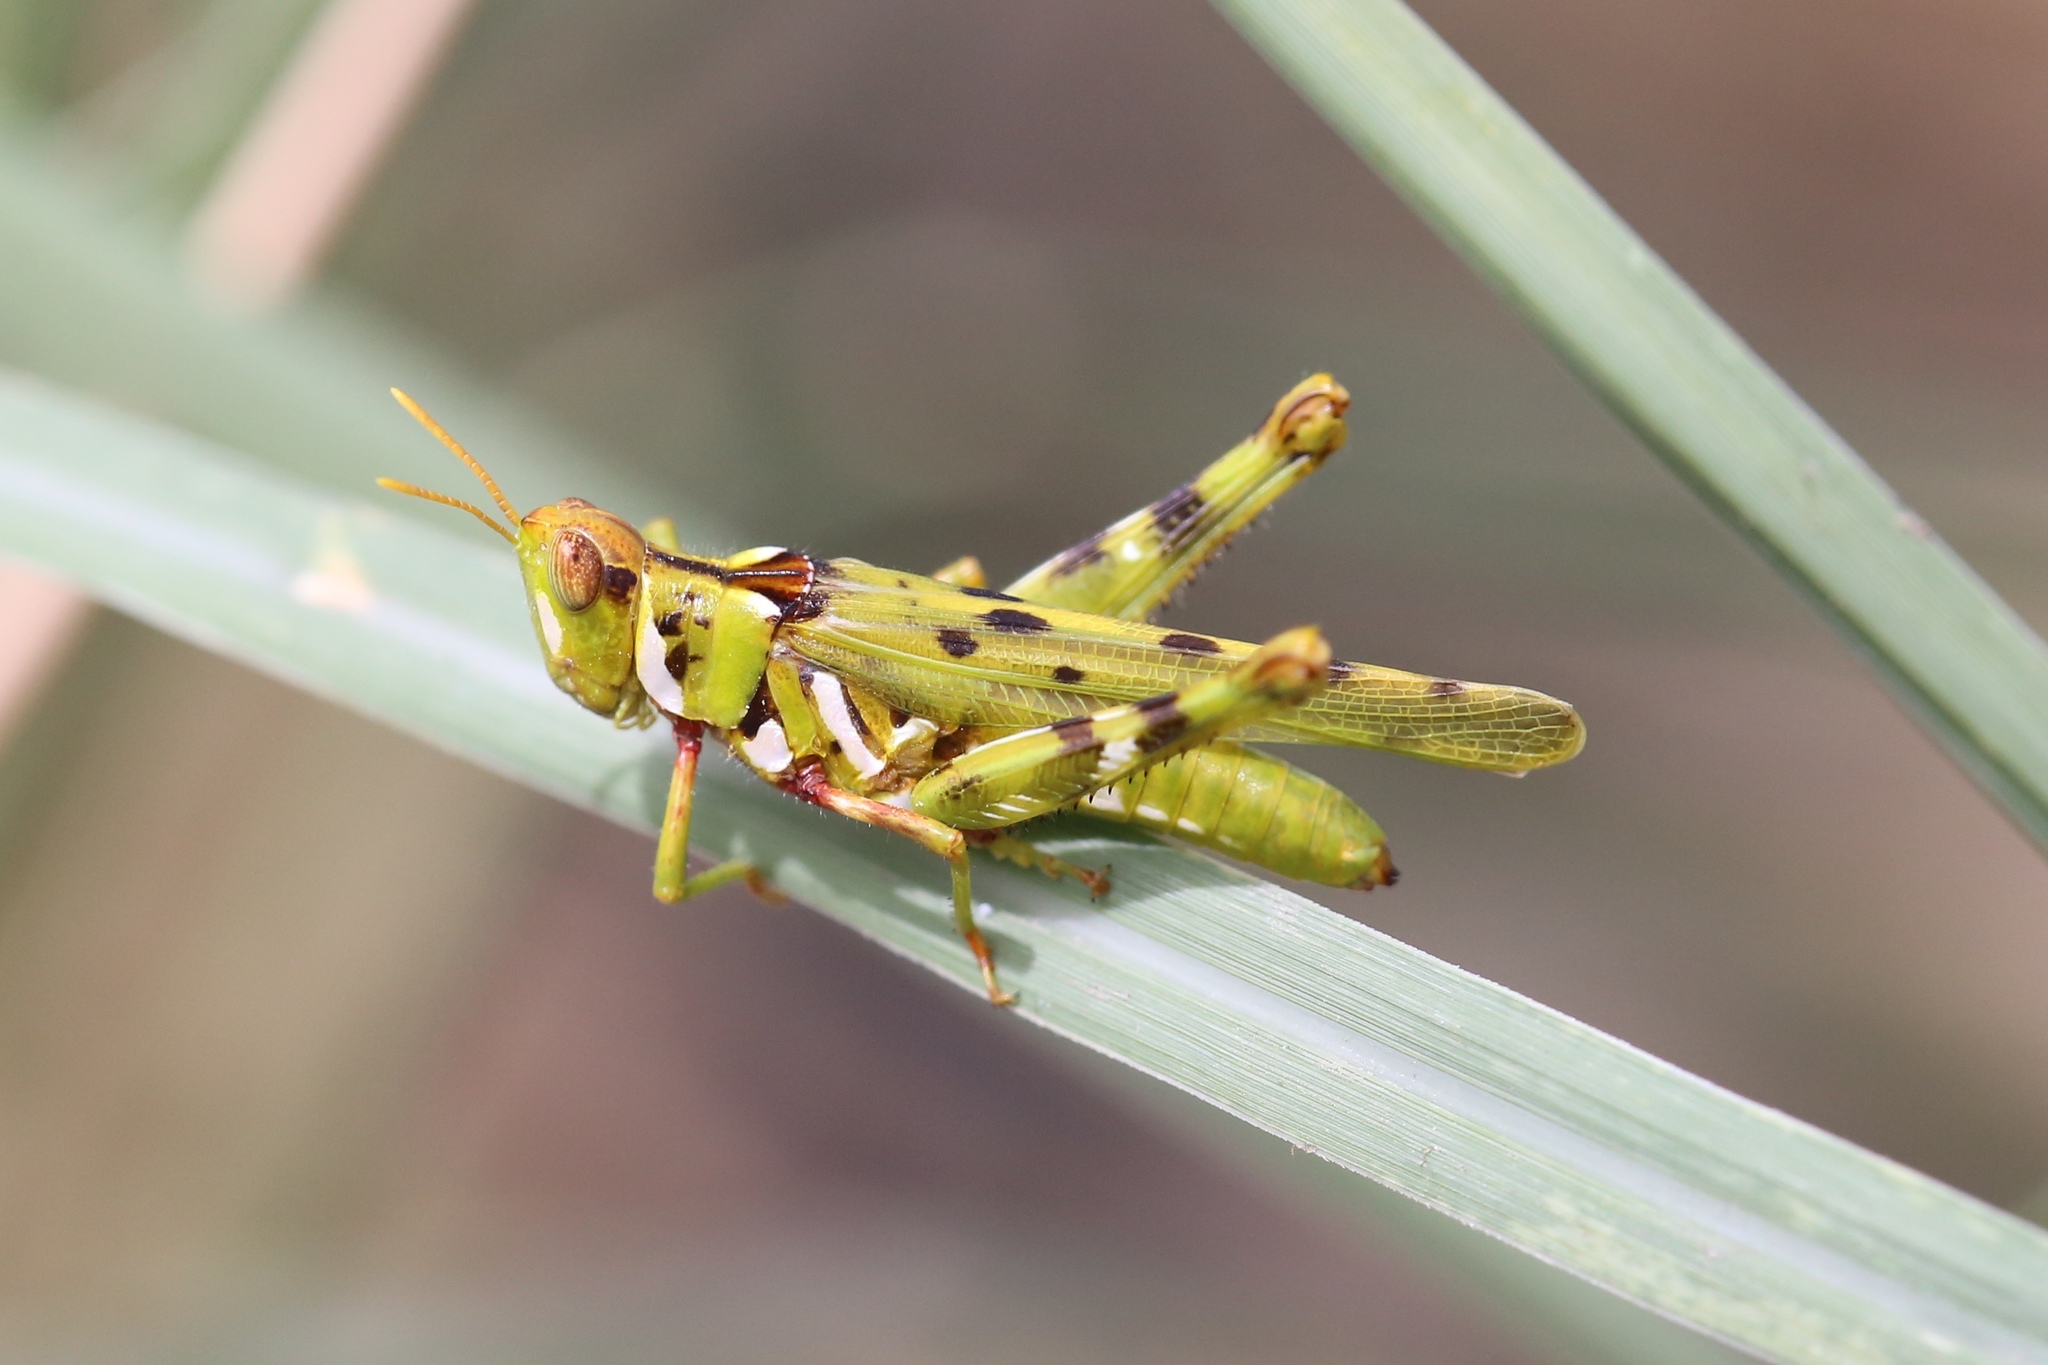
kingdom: Animalia
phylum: Arthropoda
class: Insecta
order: Orthoptera
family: Acrididae
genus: Bootettix
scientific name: Bootettix argentatus
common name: Creosote bush grasshopper
